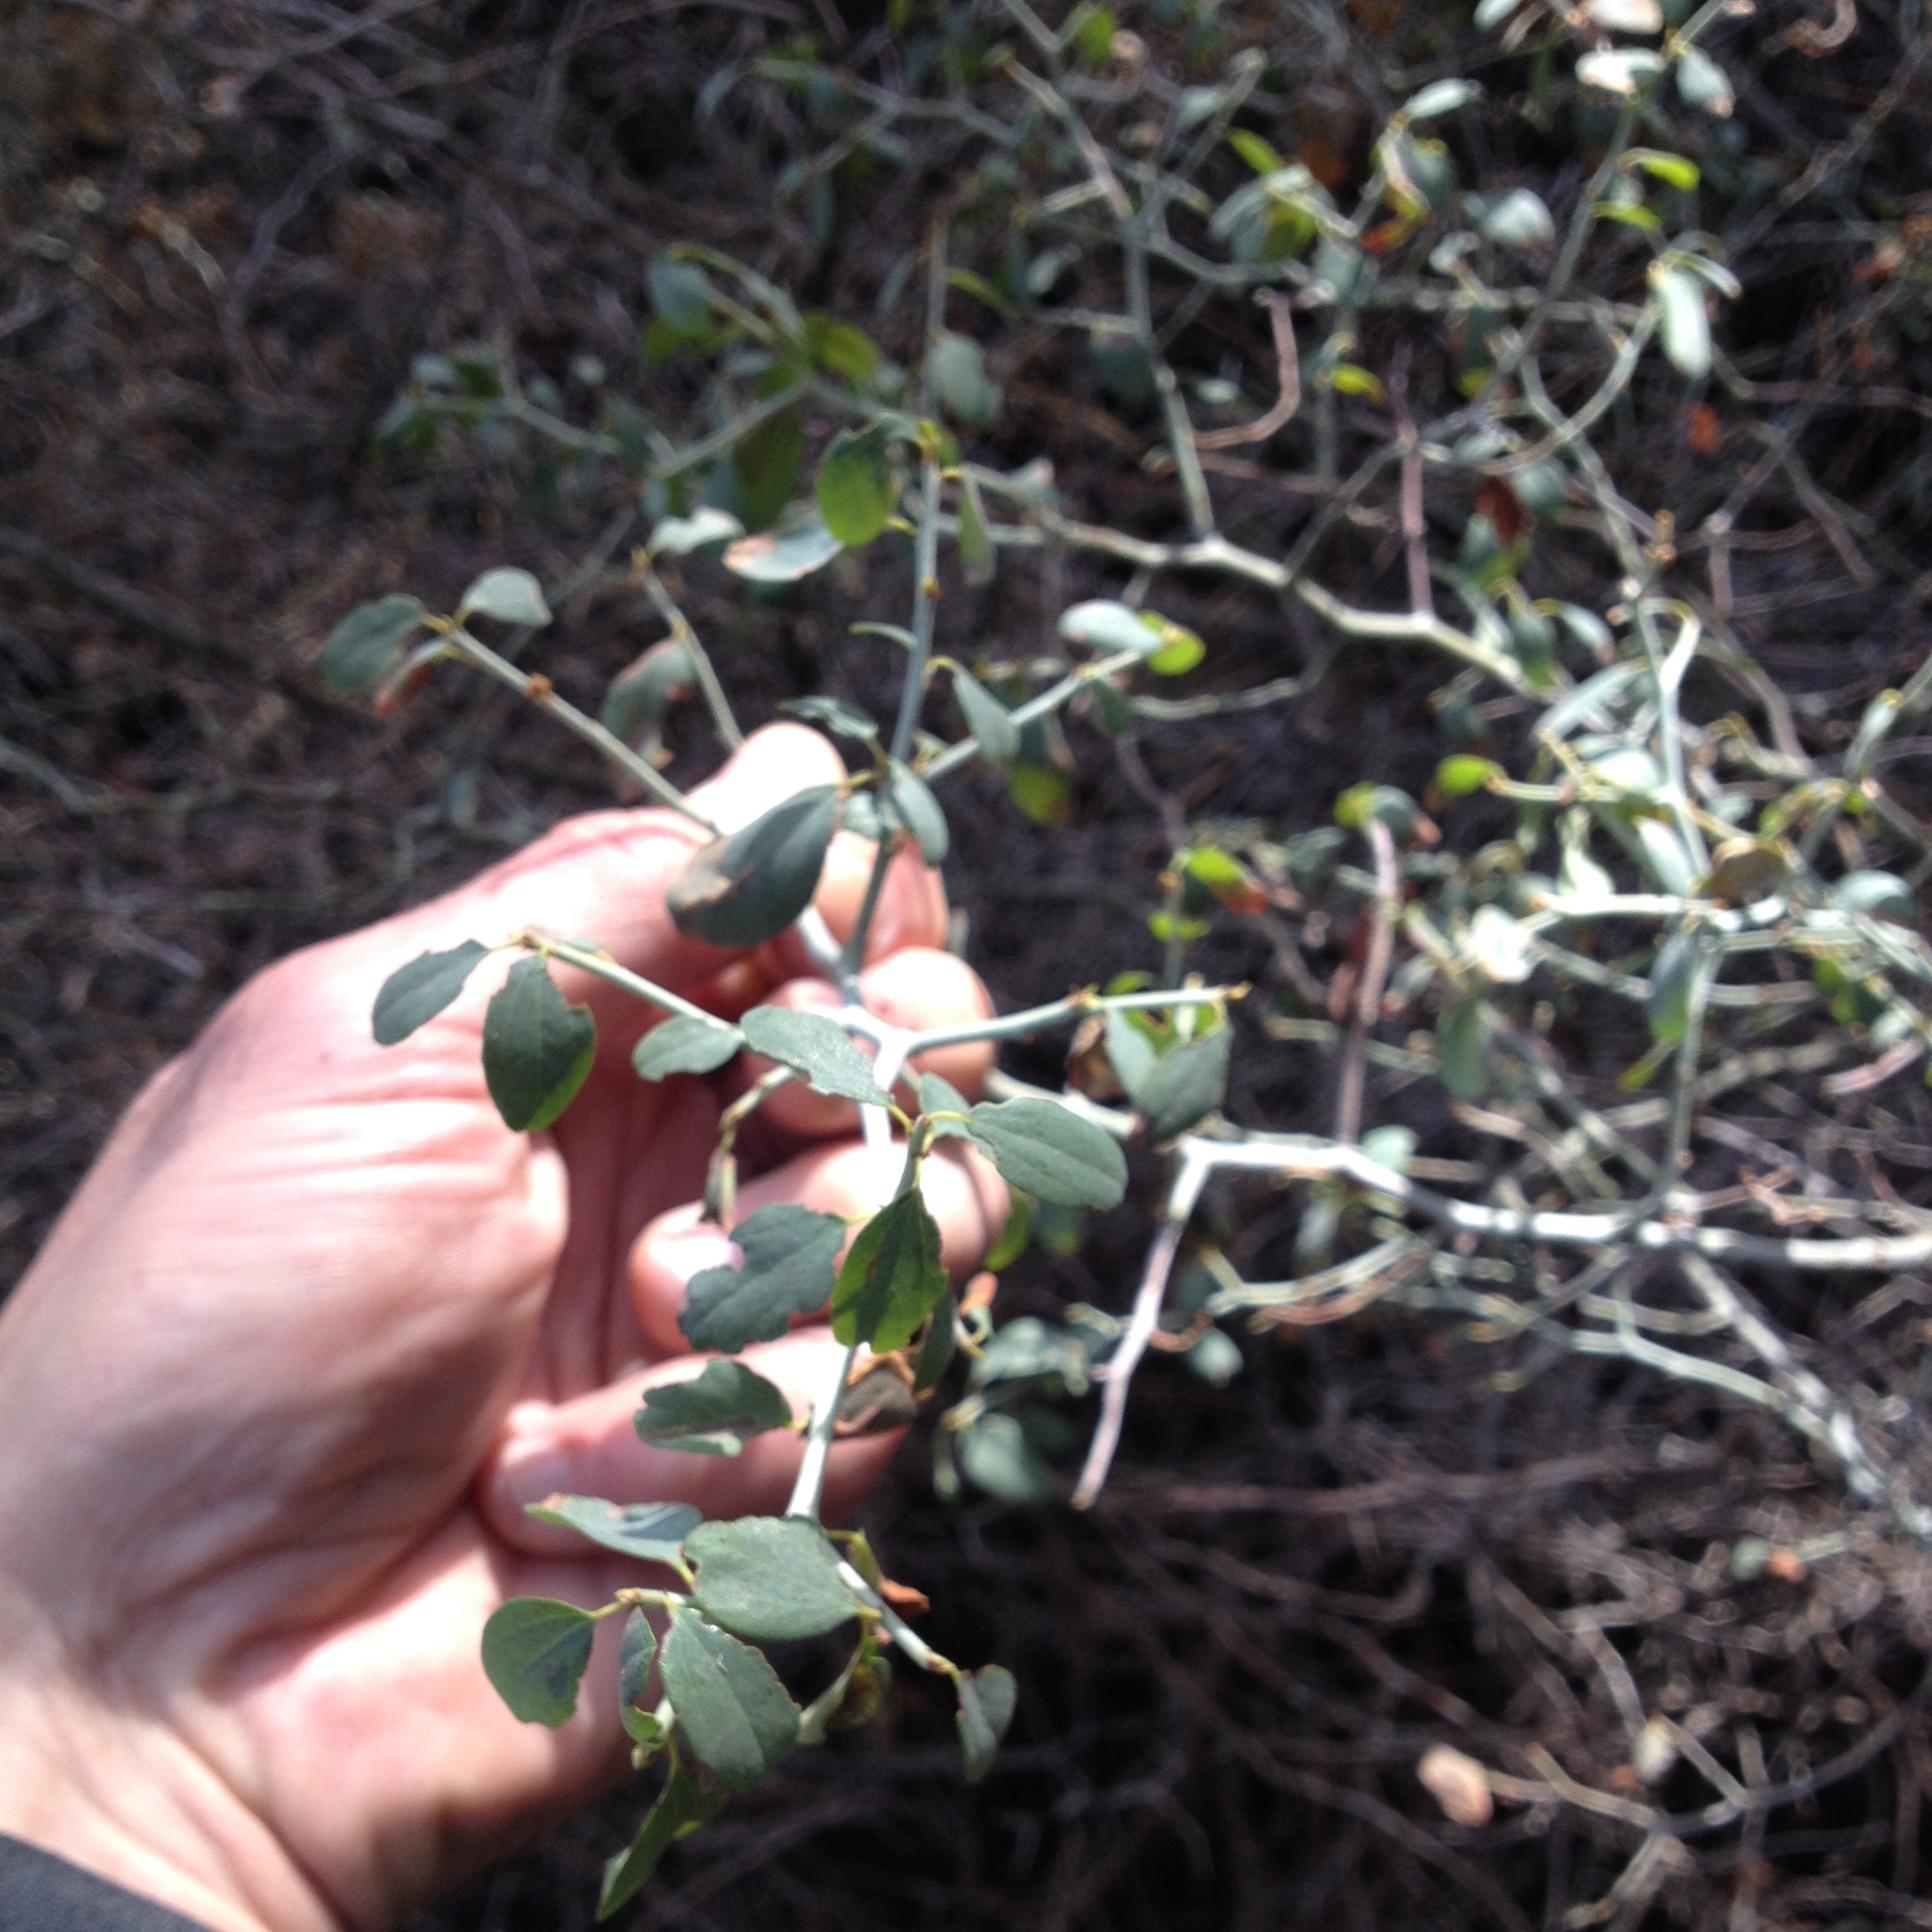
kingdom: Plantae
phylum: Tracheophyta
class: Magnoliopsida
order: Rosales
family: Rhamnaceae
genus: Ceanothus
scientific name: Ceanothus cordulatus
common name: Mountain whitethorn
